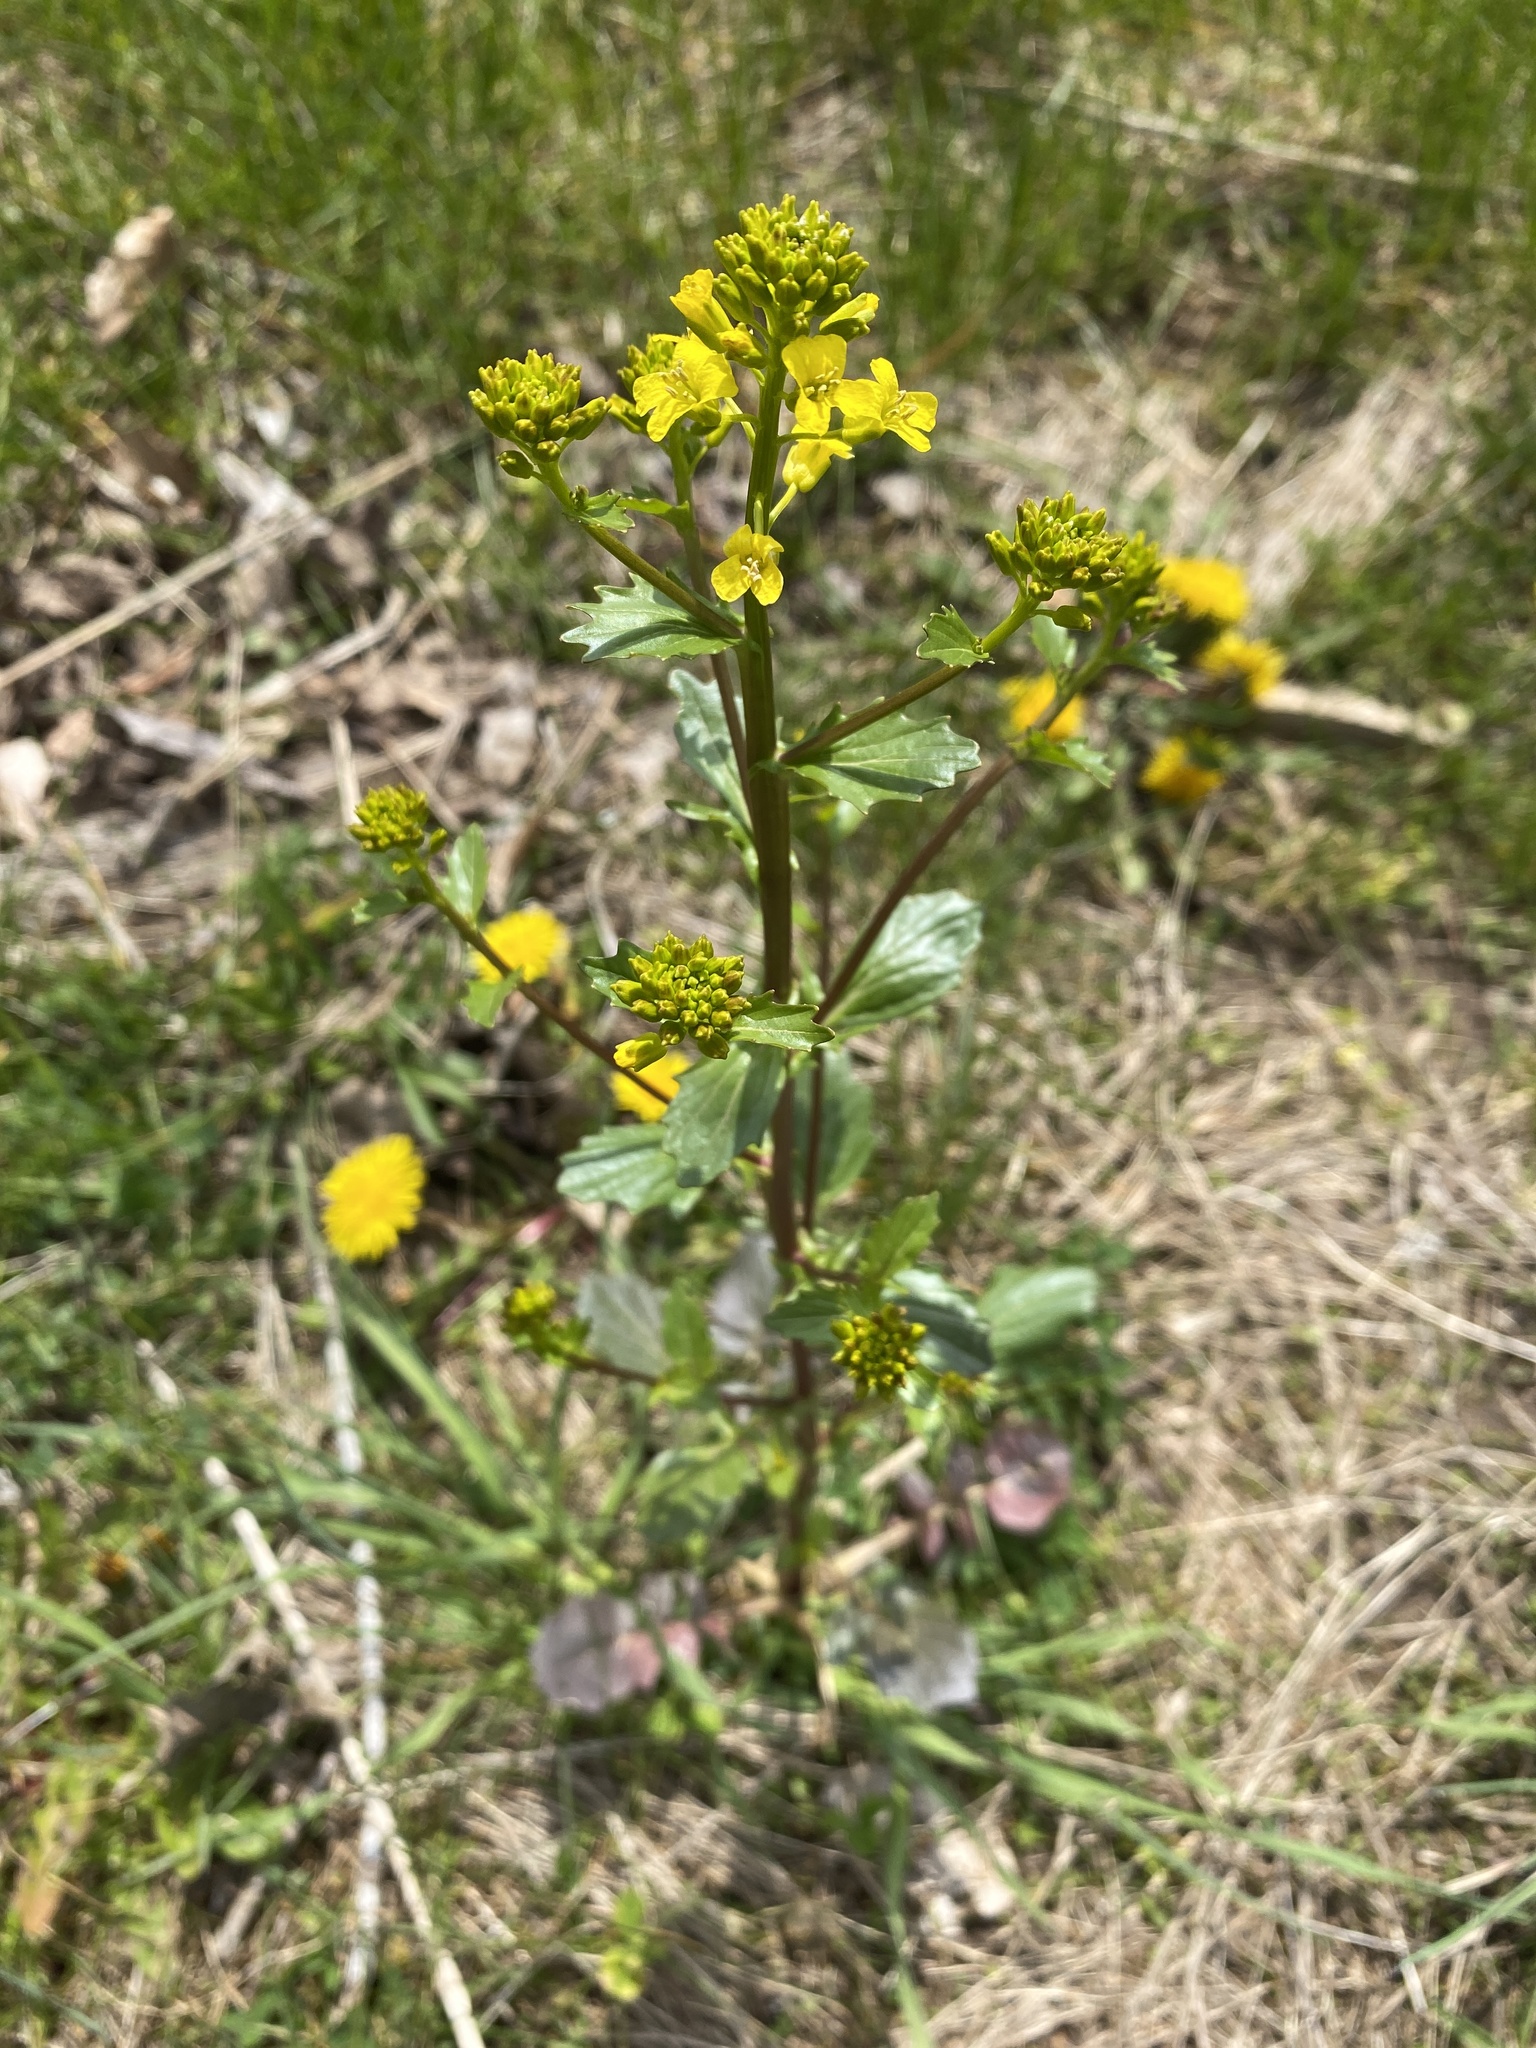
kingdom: Plantae
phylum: Tracheophyta
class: Magnoliopsida
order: Brassicales
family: Brassicaceae
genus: Barbarea
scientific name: Barbarea vulgaris
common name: Cressy-greens
